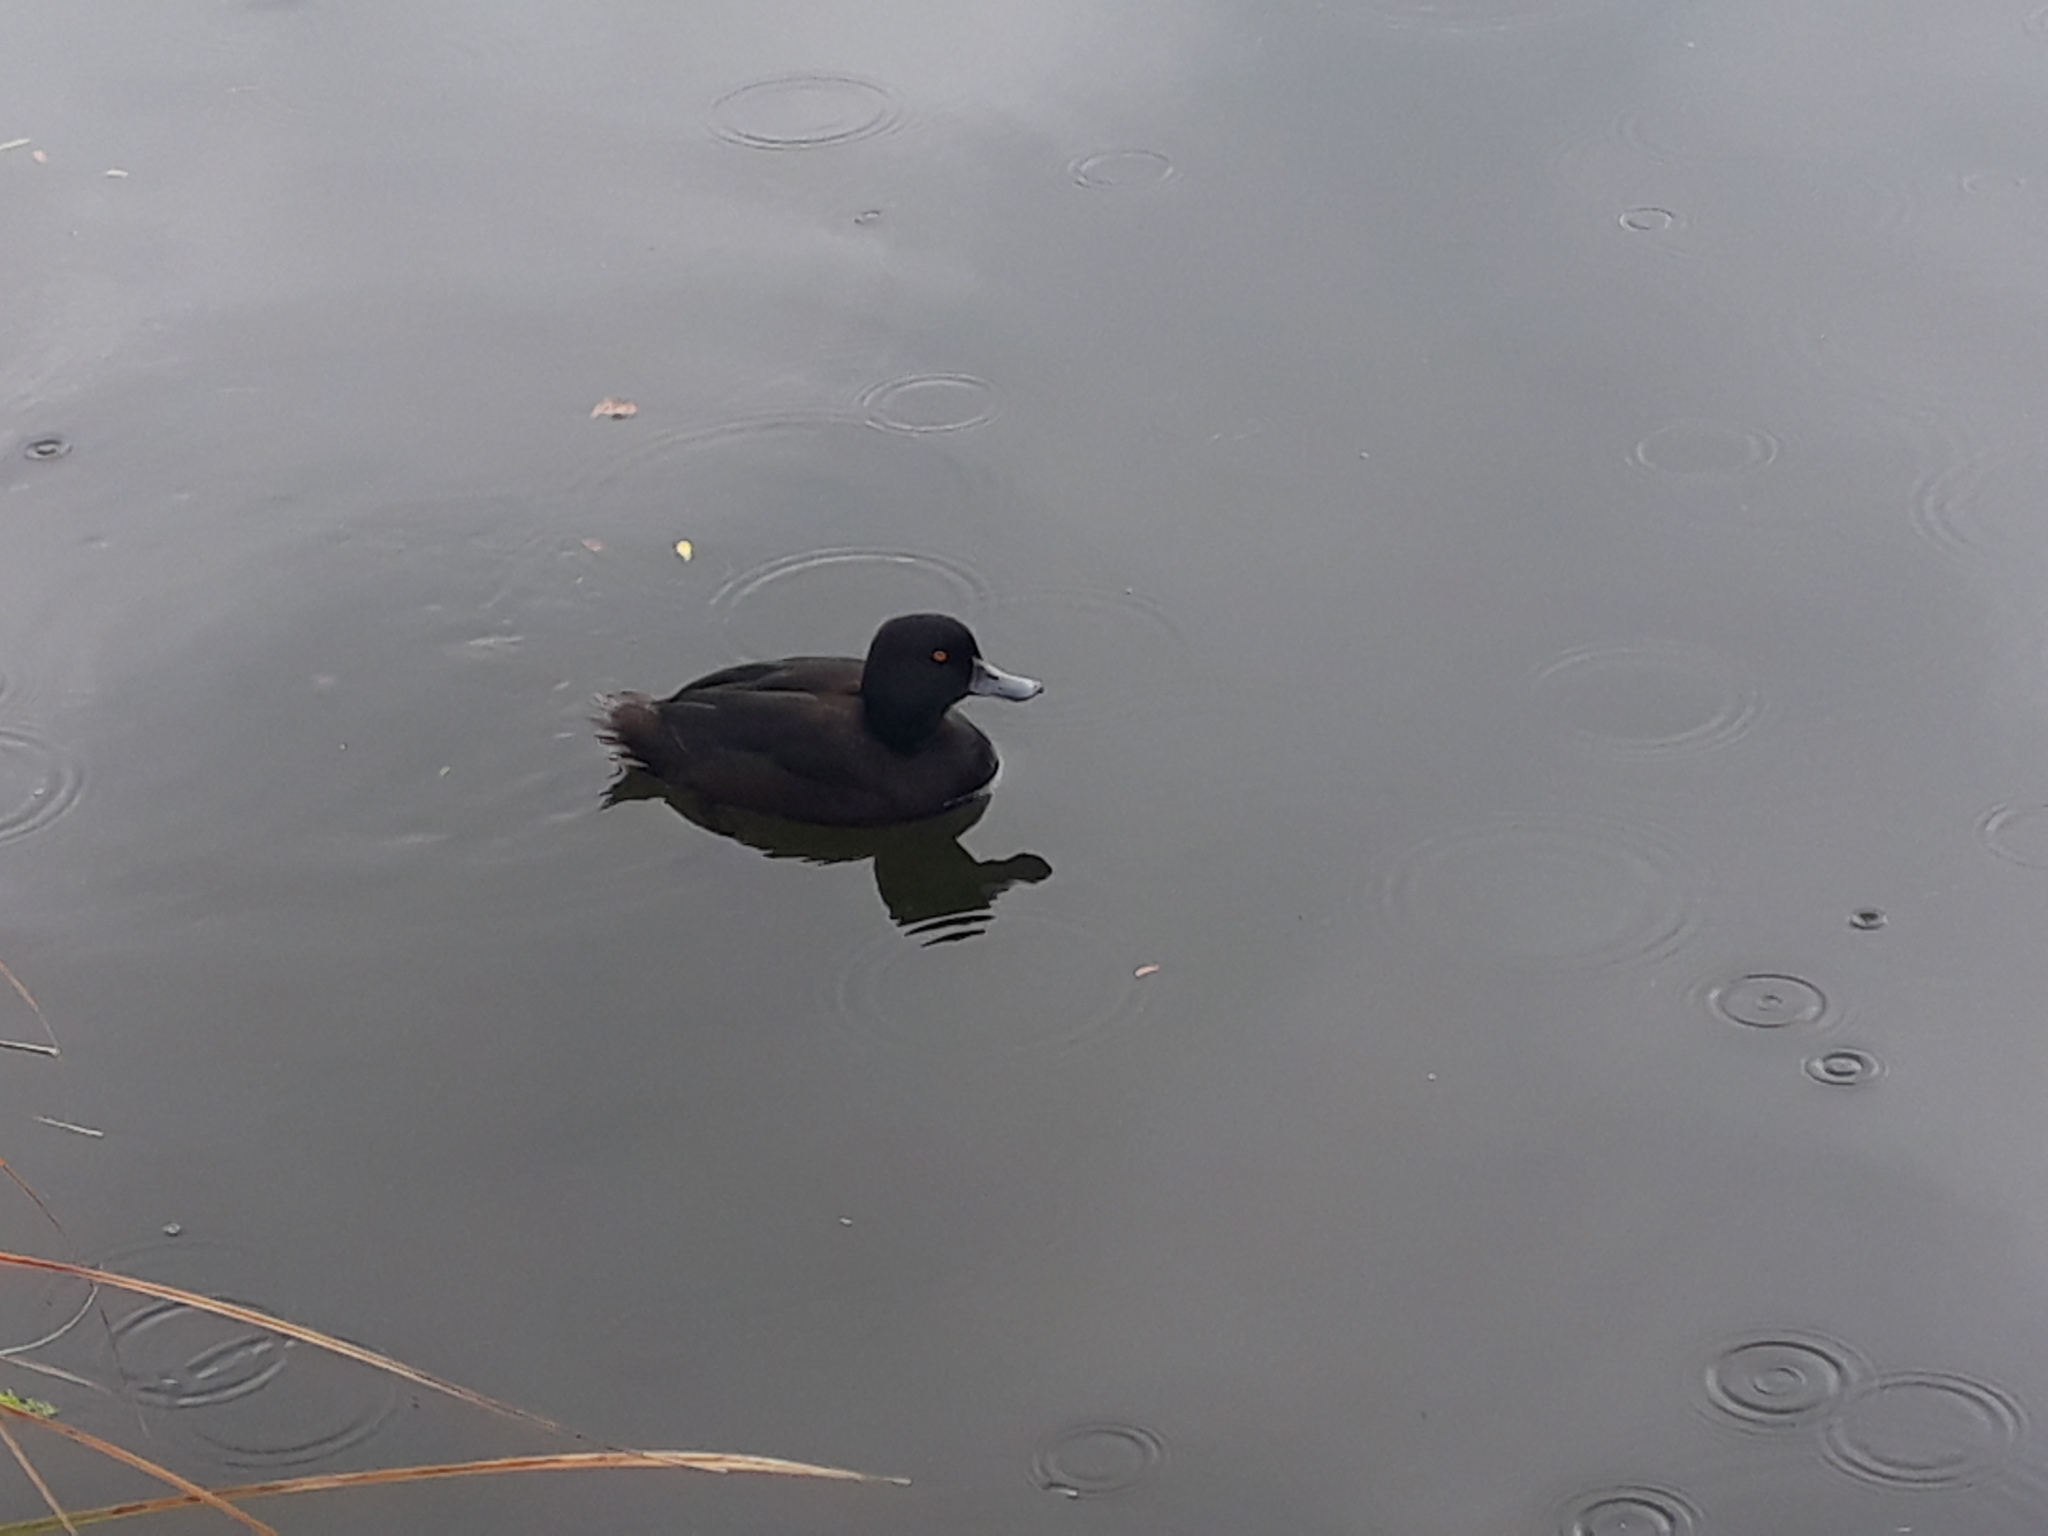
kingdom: Animalia
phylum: Chordata
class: Aves
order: Anseriformes
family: Anatidae
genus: Aythya
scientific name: Aythya novaeseelandiae
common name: New zealand scaup
